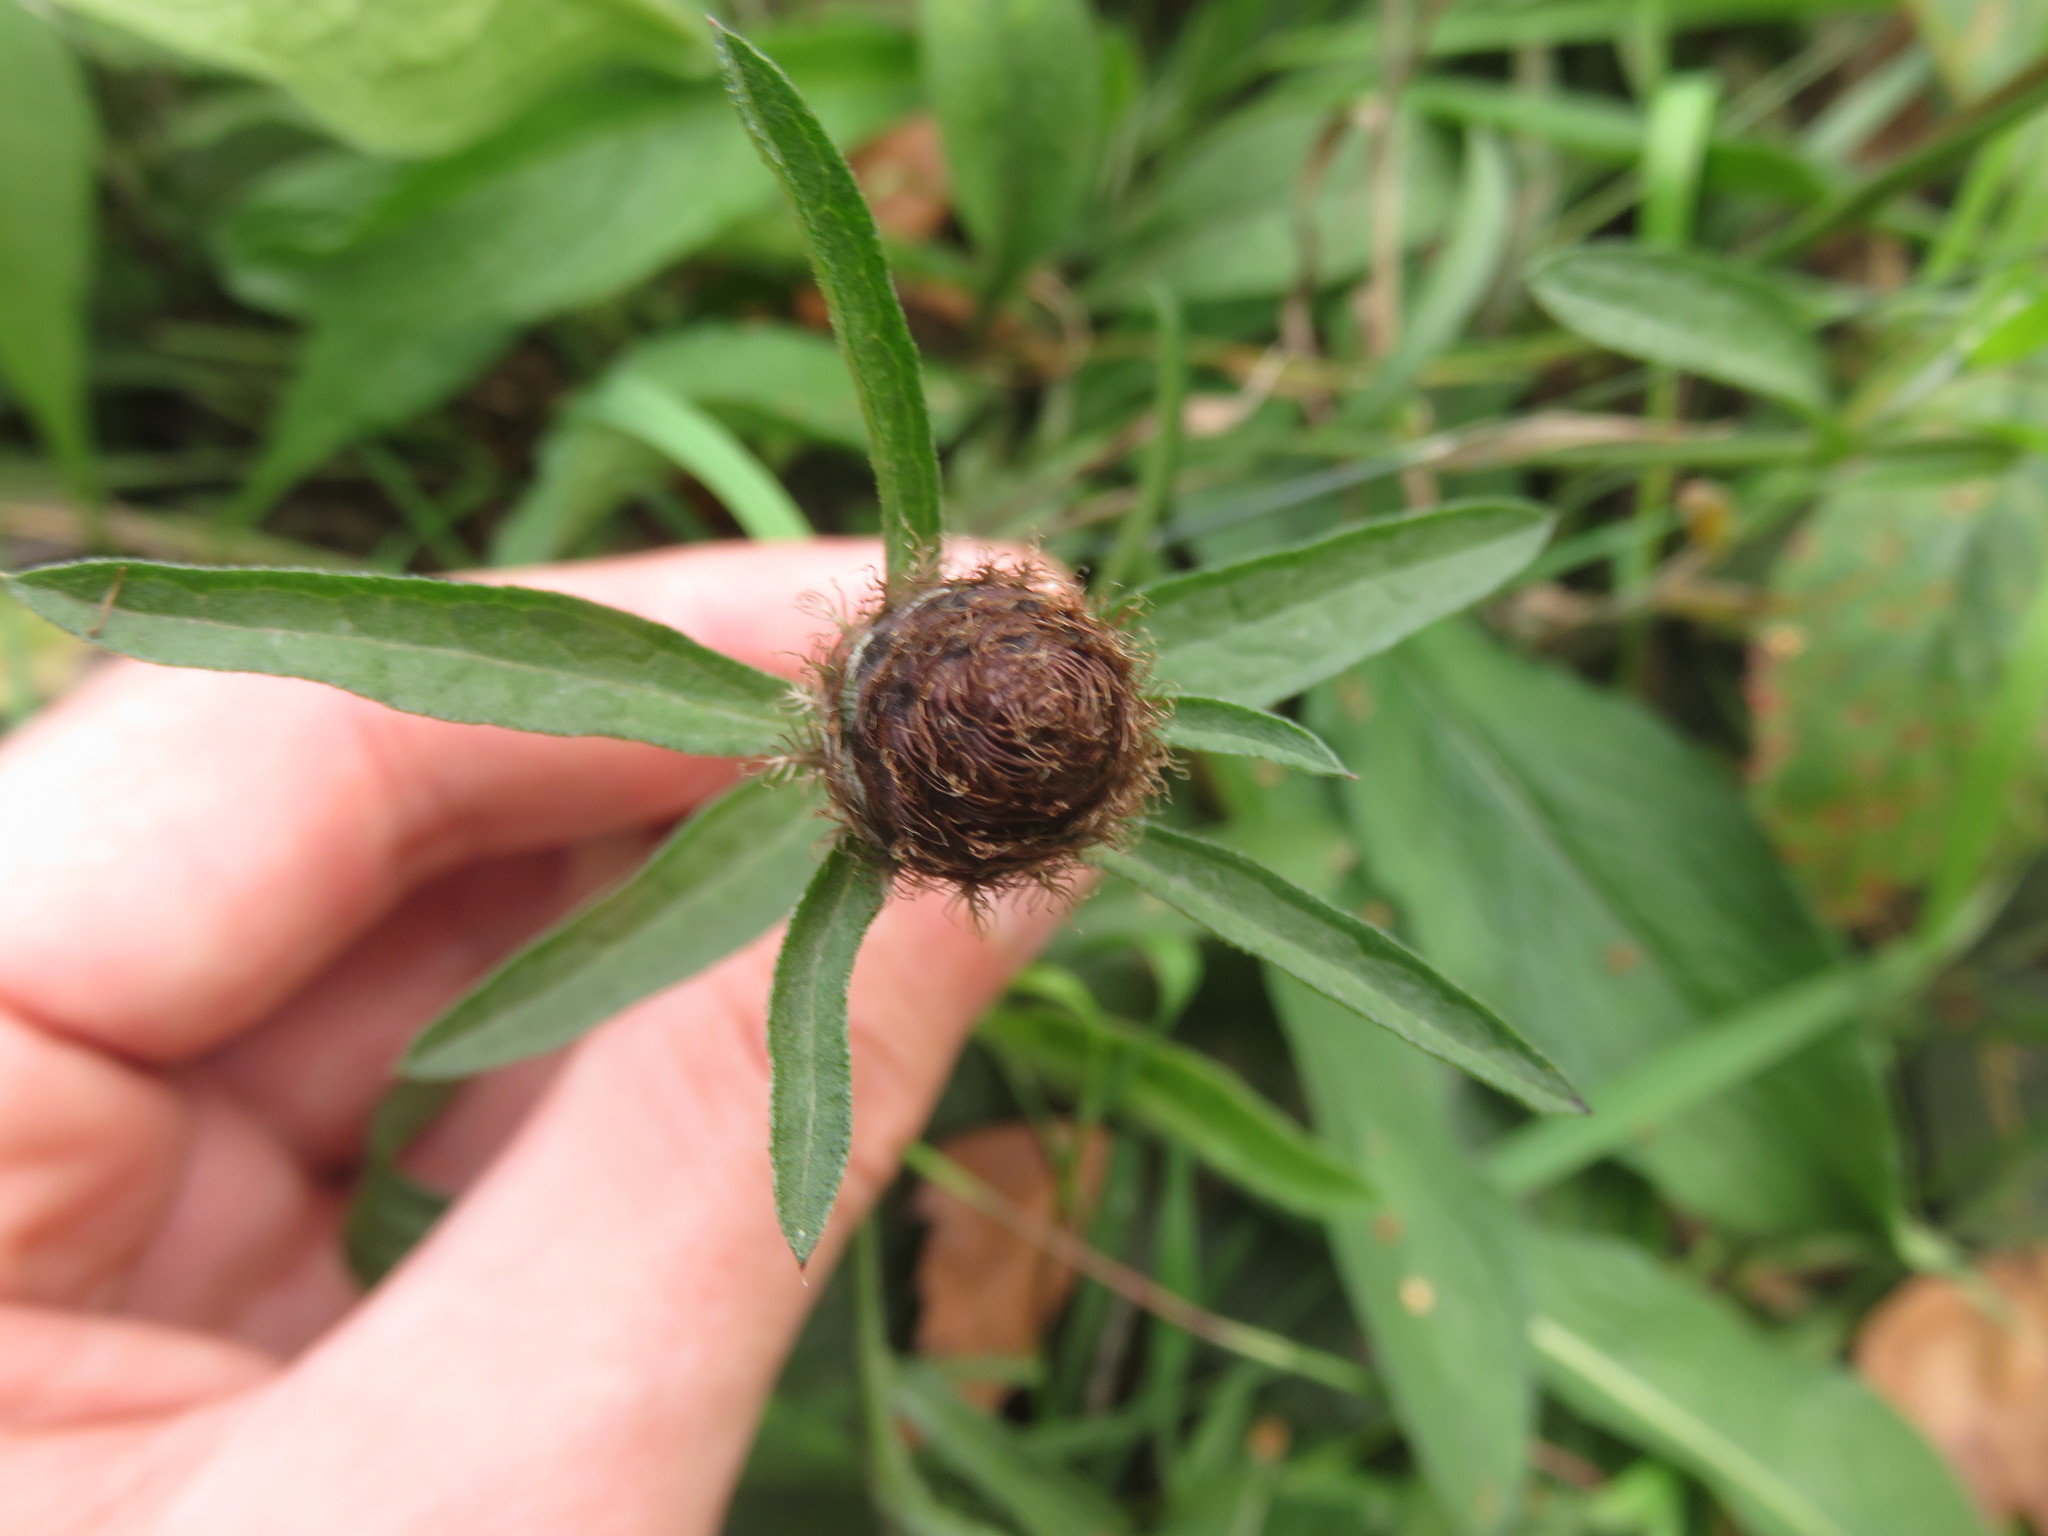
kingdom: Plantae
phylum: Tracheophyta
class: Magnoliopsida
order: Asterales
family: Asteraceae
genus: Centaurea
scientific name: Centaurea nigra
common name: Lesser knapweed
